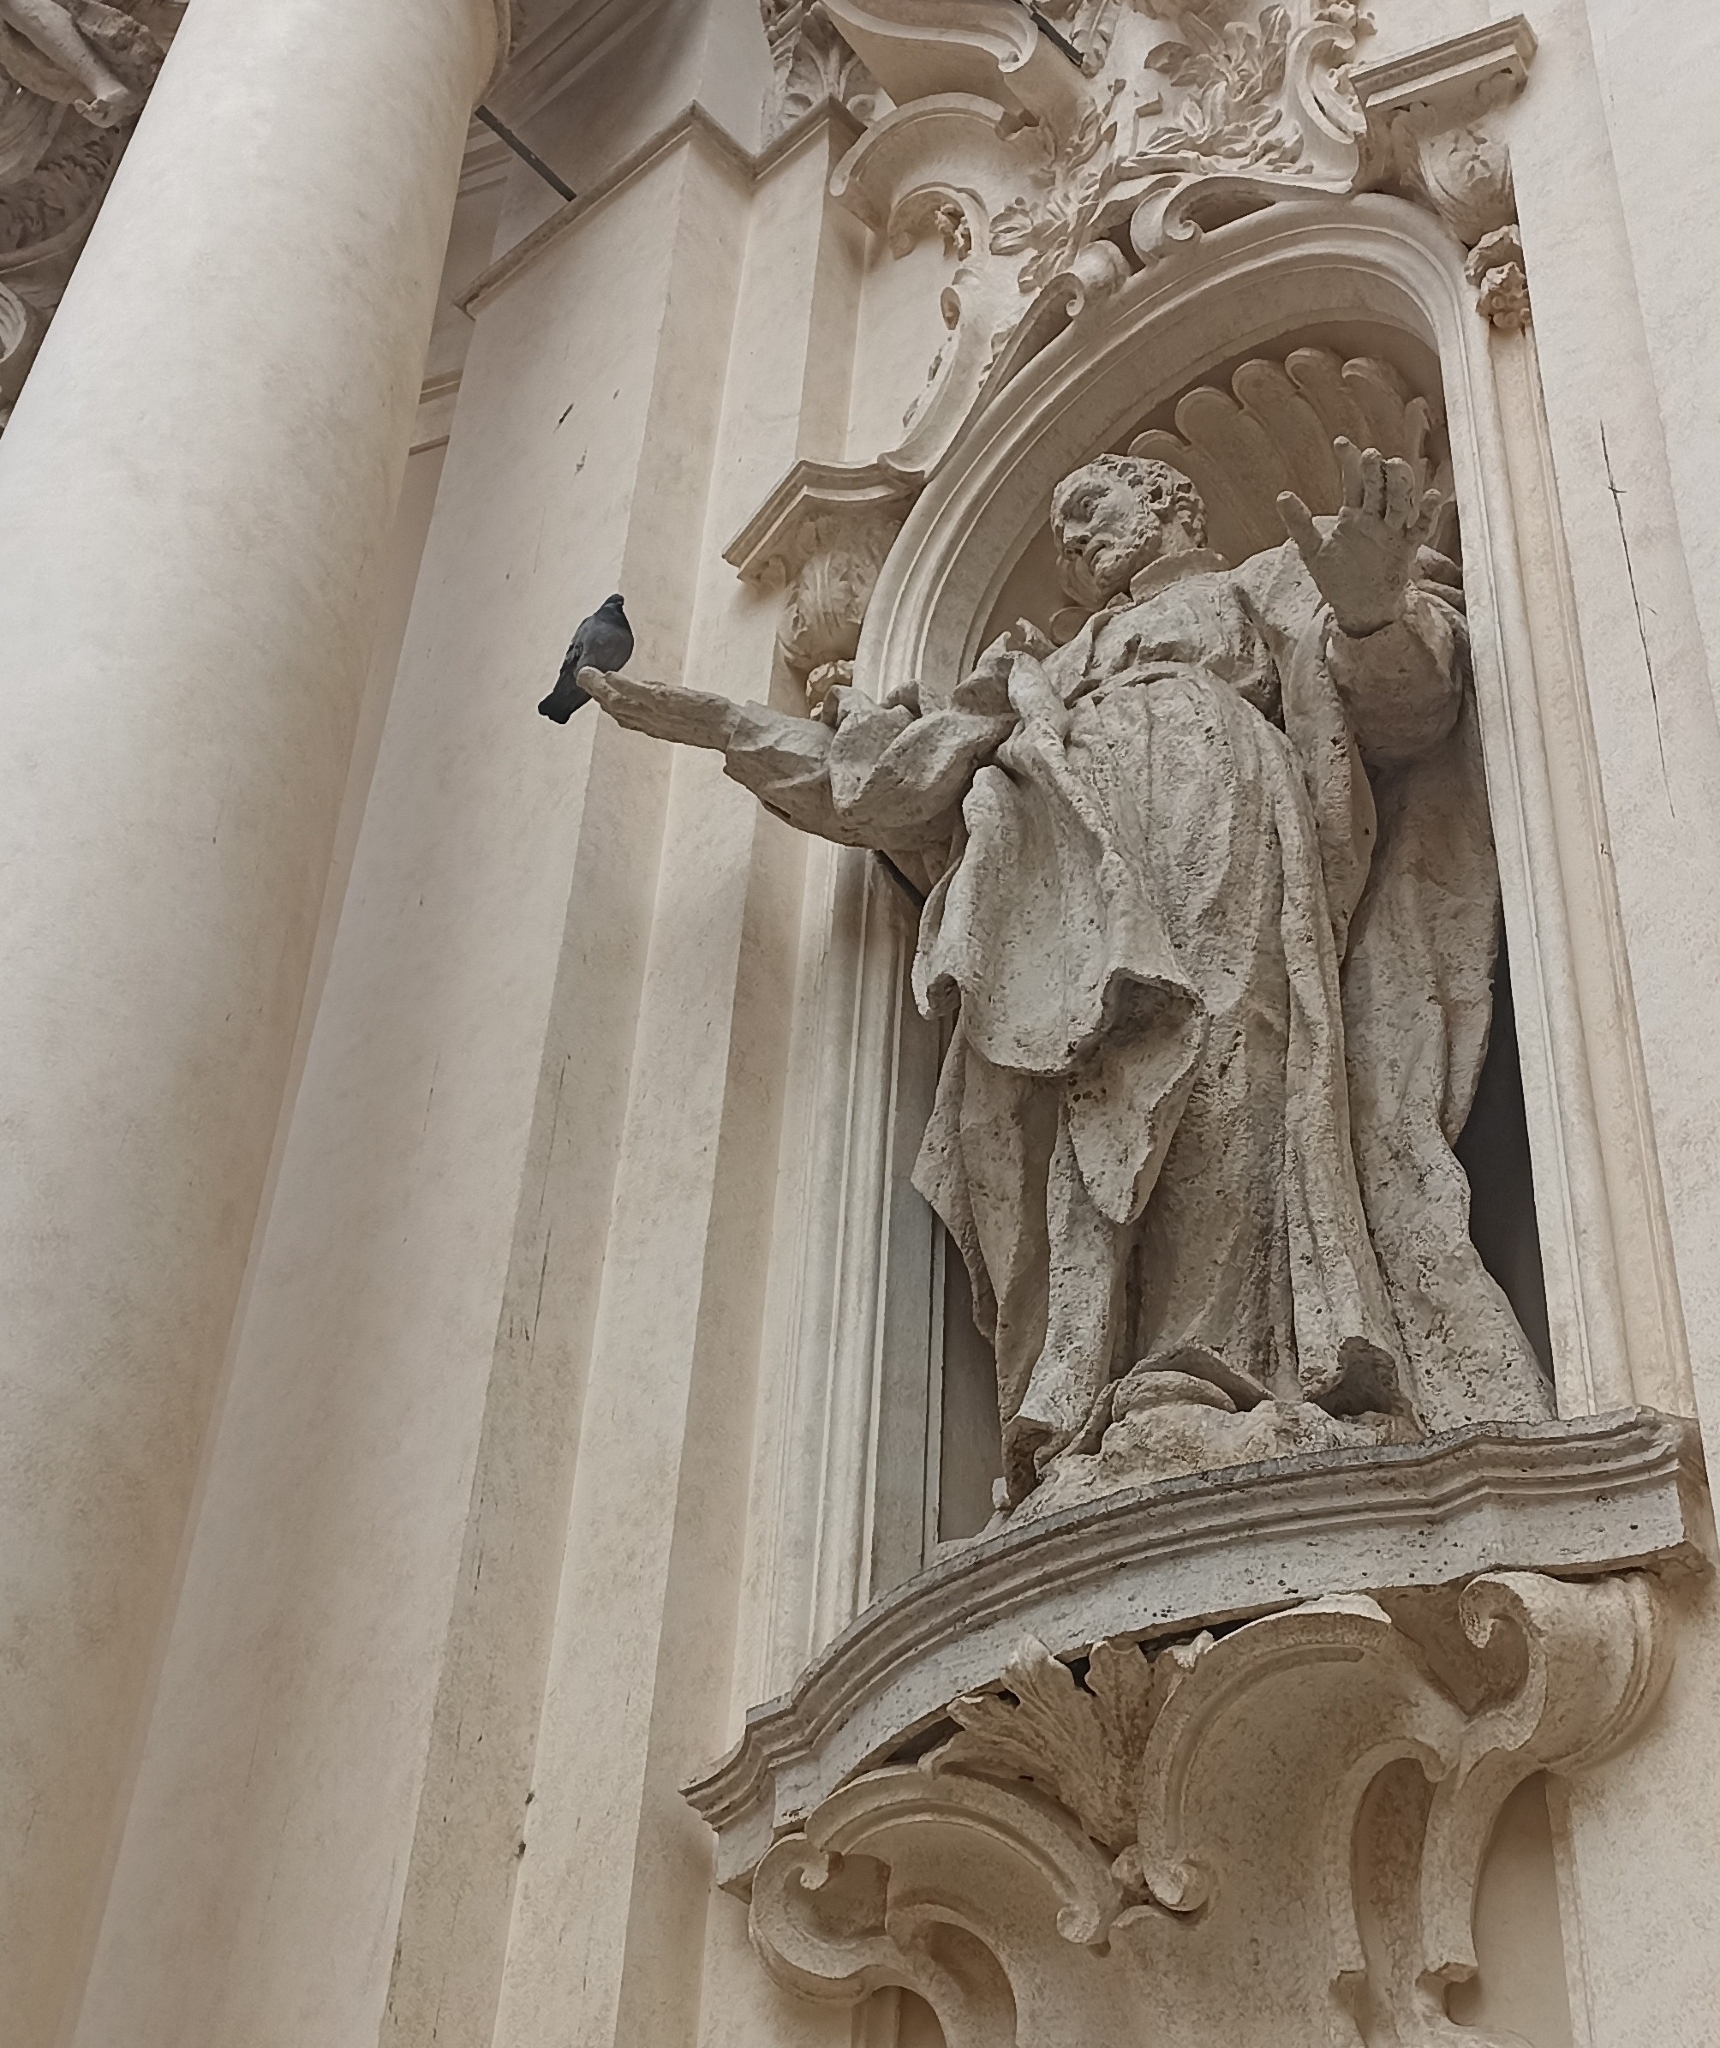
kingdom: Animalia
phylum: Chordata
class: Aves
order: Columbiformes
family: Columbidae
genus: Columba
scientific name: Columba livia
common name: Rock pigeon
